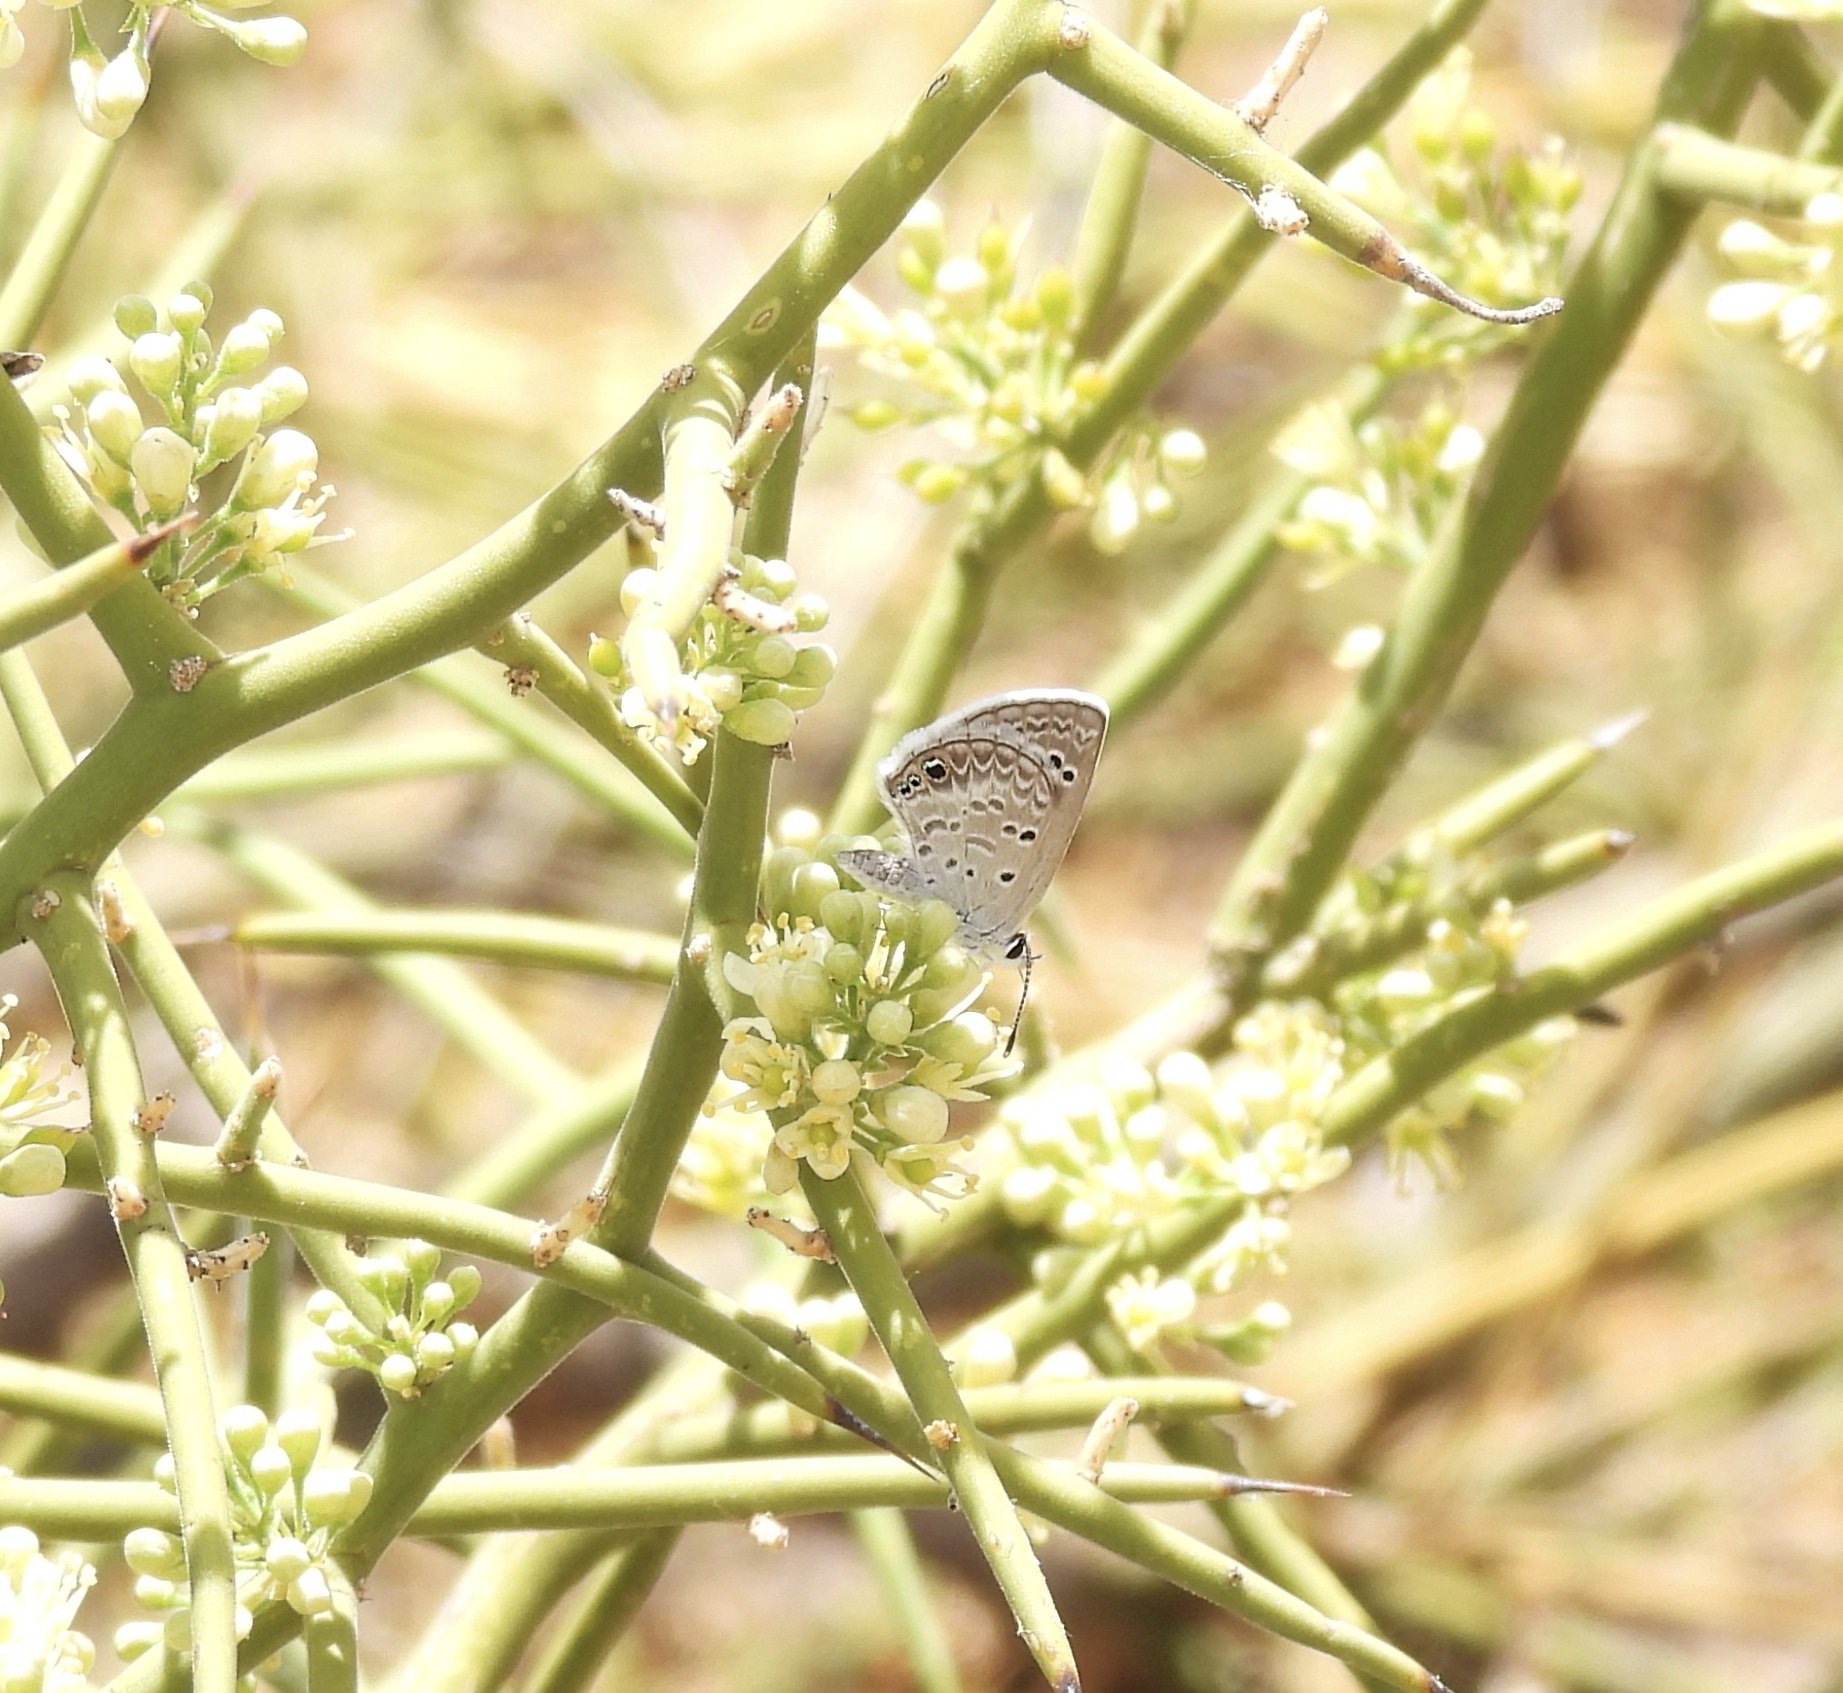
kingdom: Animalia
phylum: Arthropoda
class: Insecta
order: Lepidoptera
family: Lycaenidae
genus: Echinargus
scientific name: Echinargus isola
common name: Reakirt's blue
